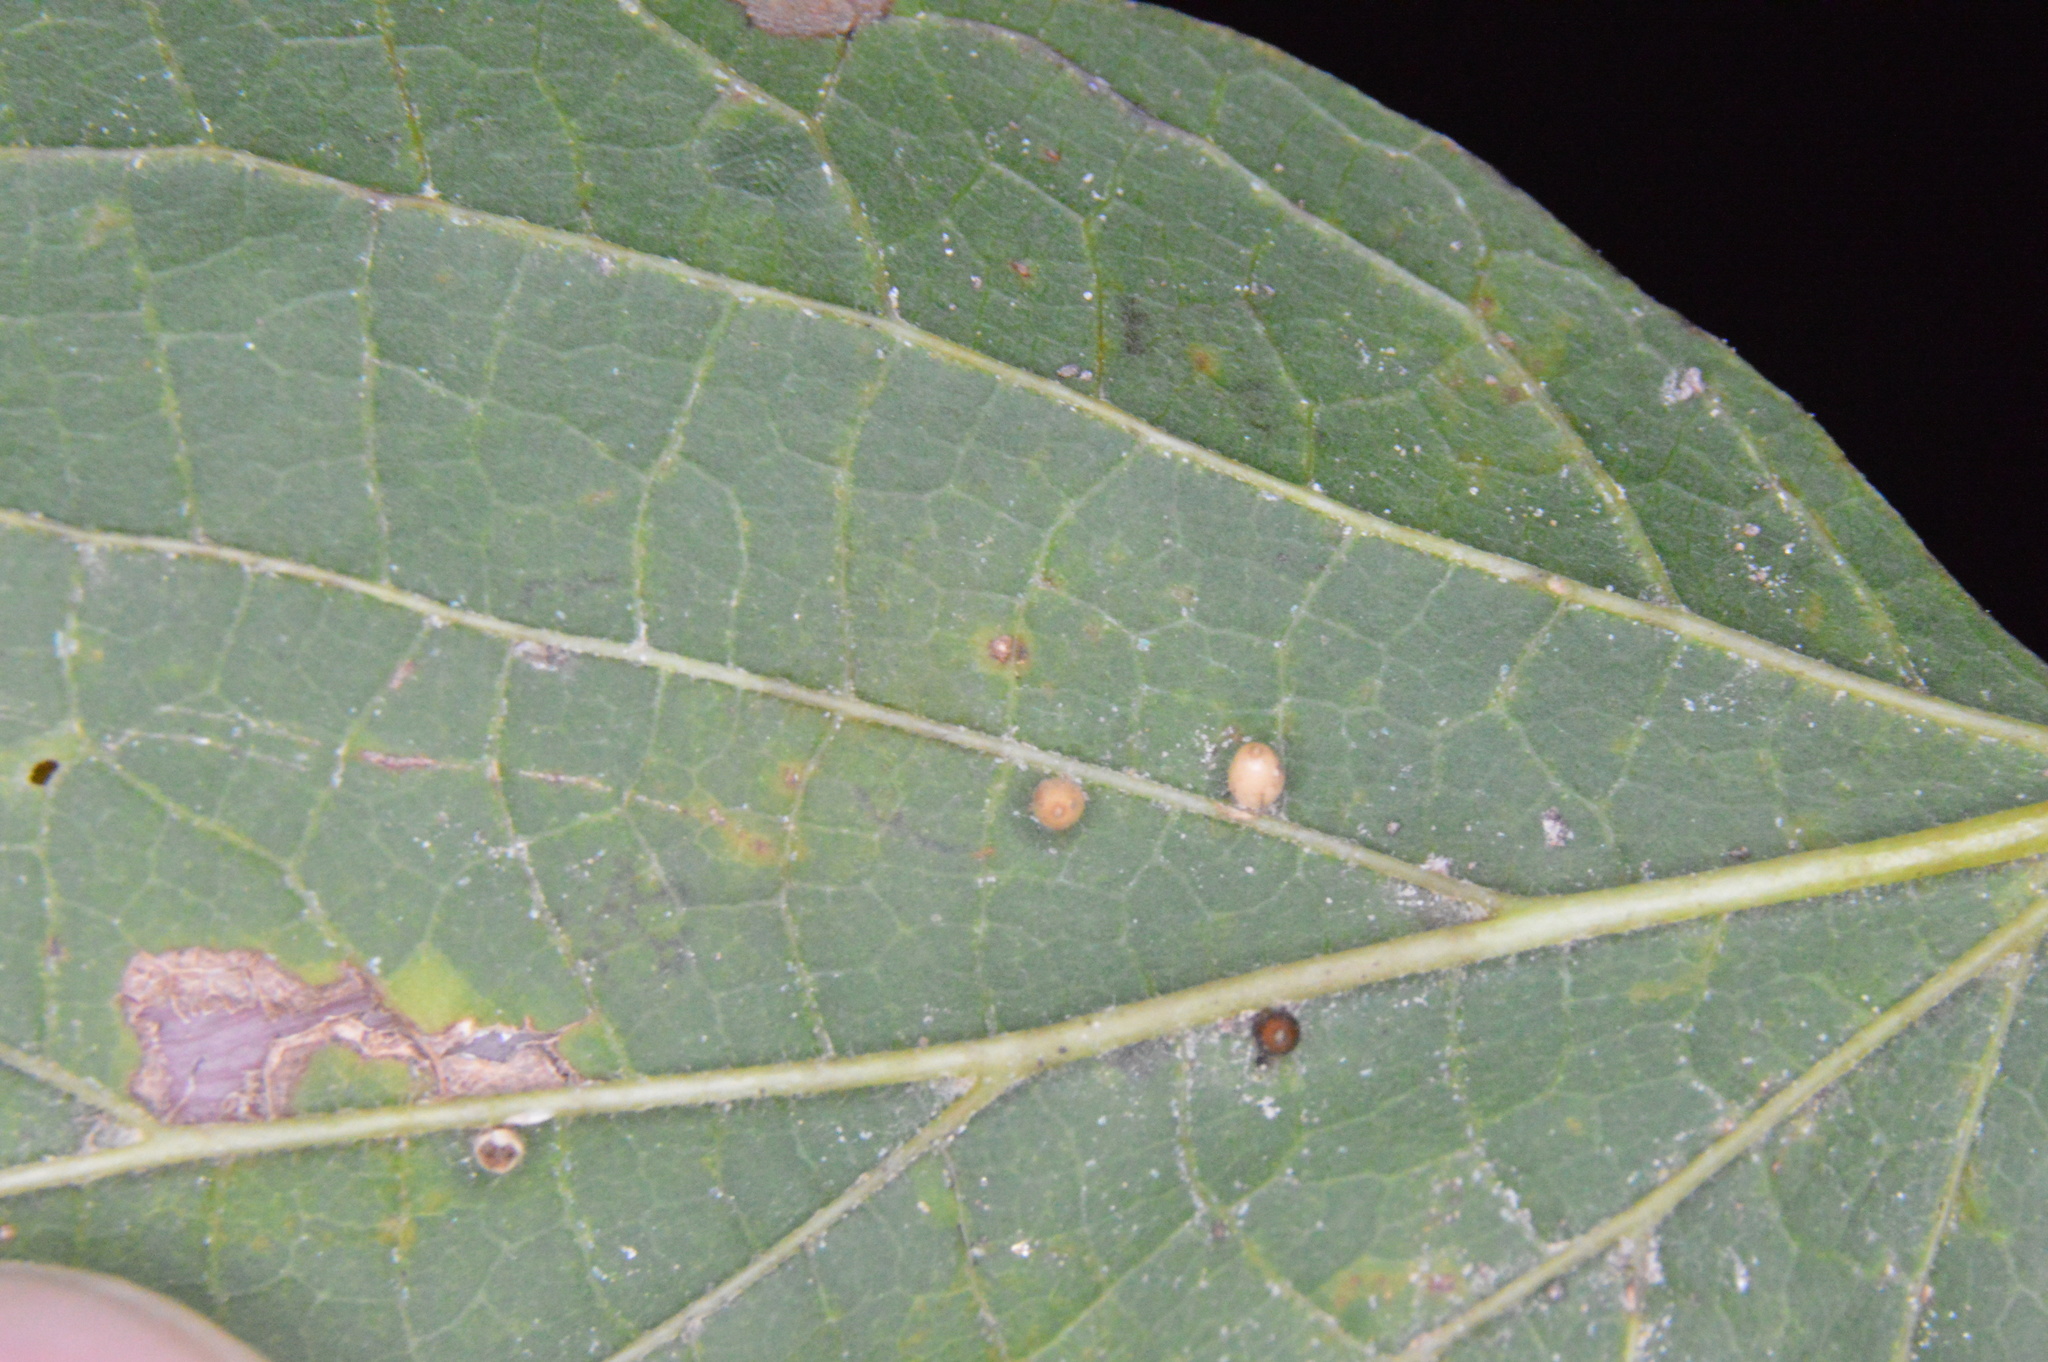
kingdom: Animalia
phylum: Arthropoda
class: Insecta
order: Diptera
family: Cecidomyiidae
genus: Celticecis
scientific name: Celticecis cupiformis
